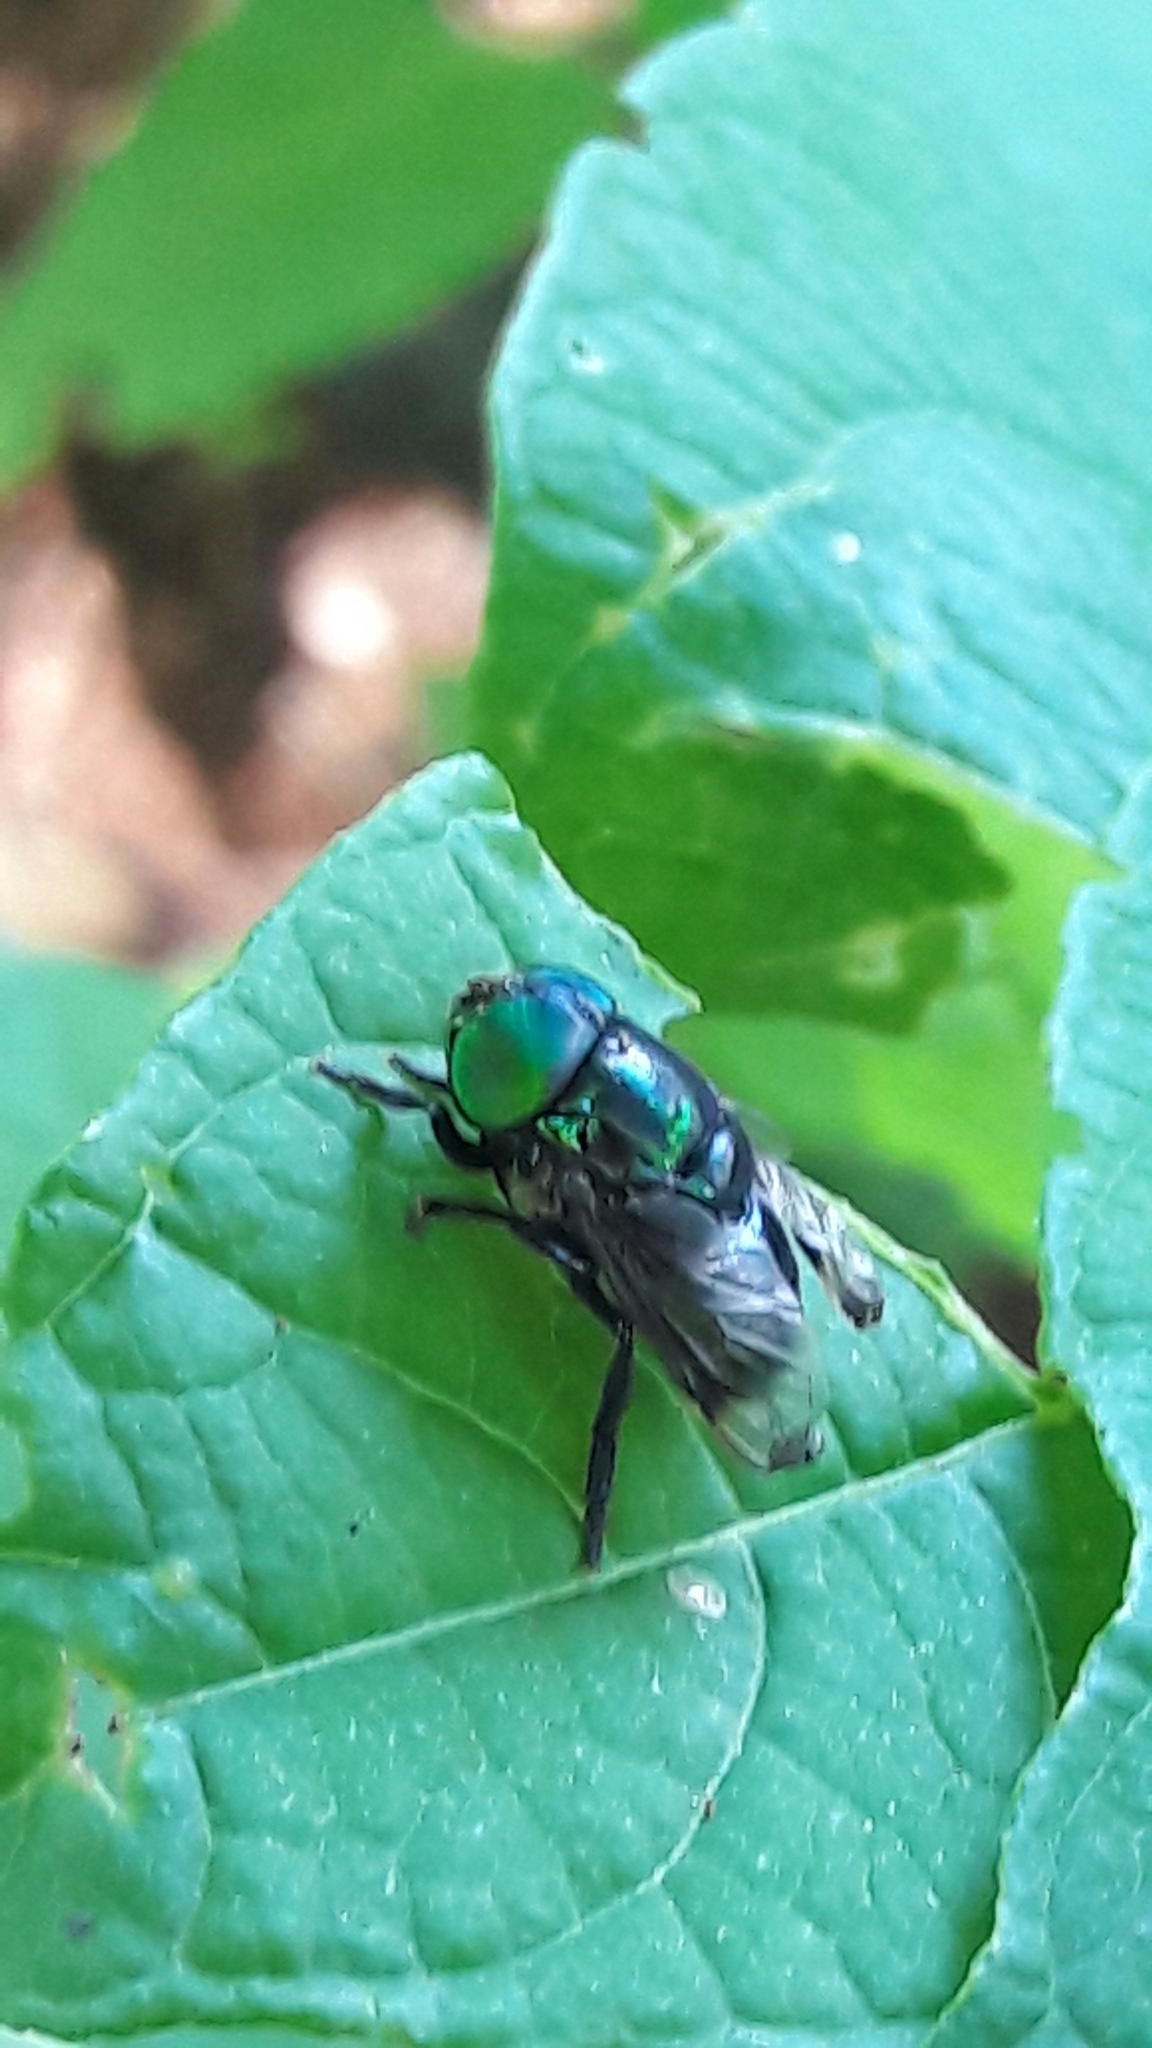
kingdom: Animalia
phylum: Arthropoda
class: Insecta
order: Diptera
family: Syrphidae
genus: Ornidia
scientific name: Ornidia obesa
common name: Syrphid fly
